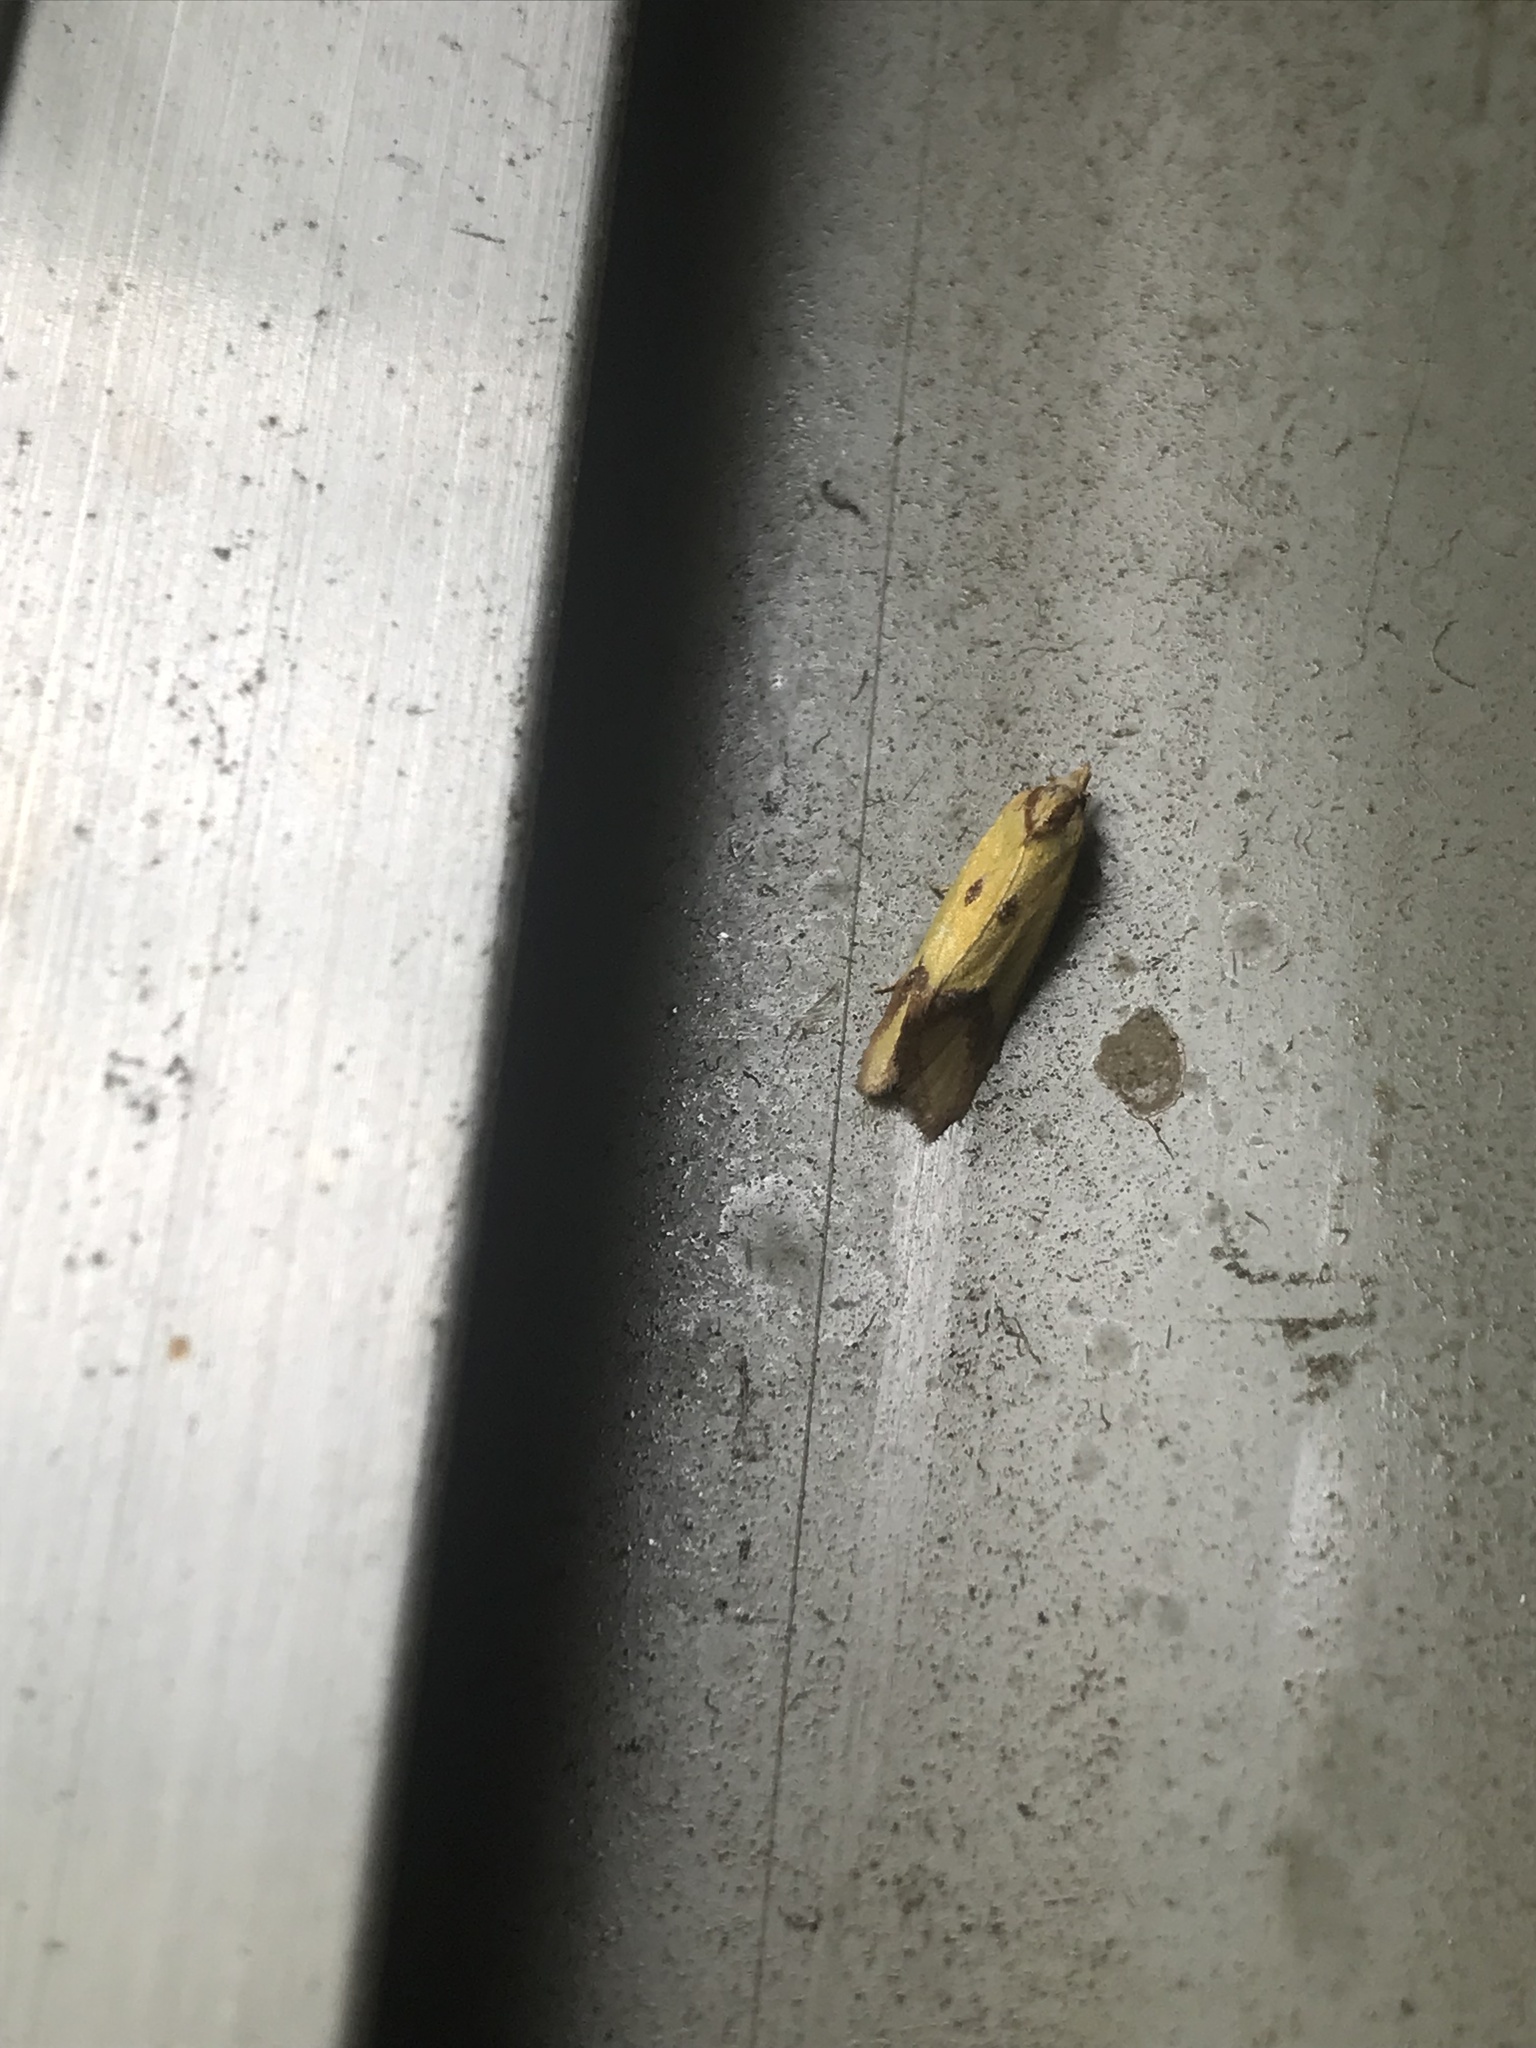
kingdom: Animalia
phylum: Arthropoda
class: Insecta
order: Lepidoptera
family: Tortricidae
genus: Agapeta
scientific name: Agapeta zoegana
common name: Sulfur knapweed root moth
